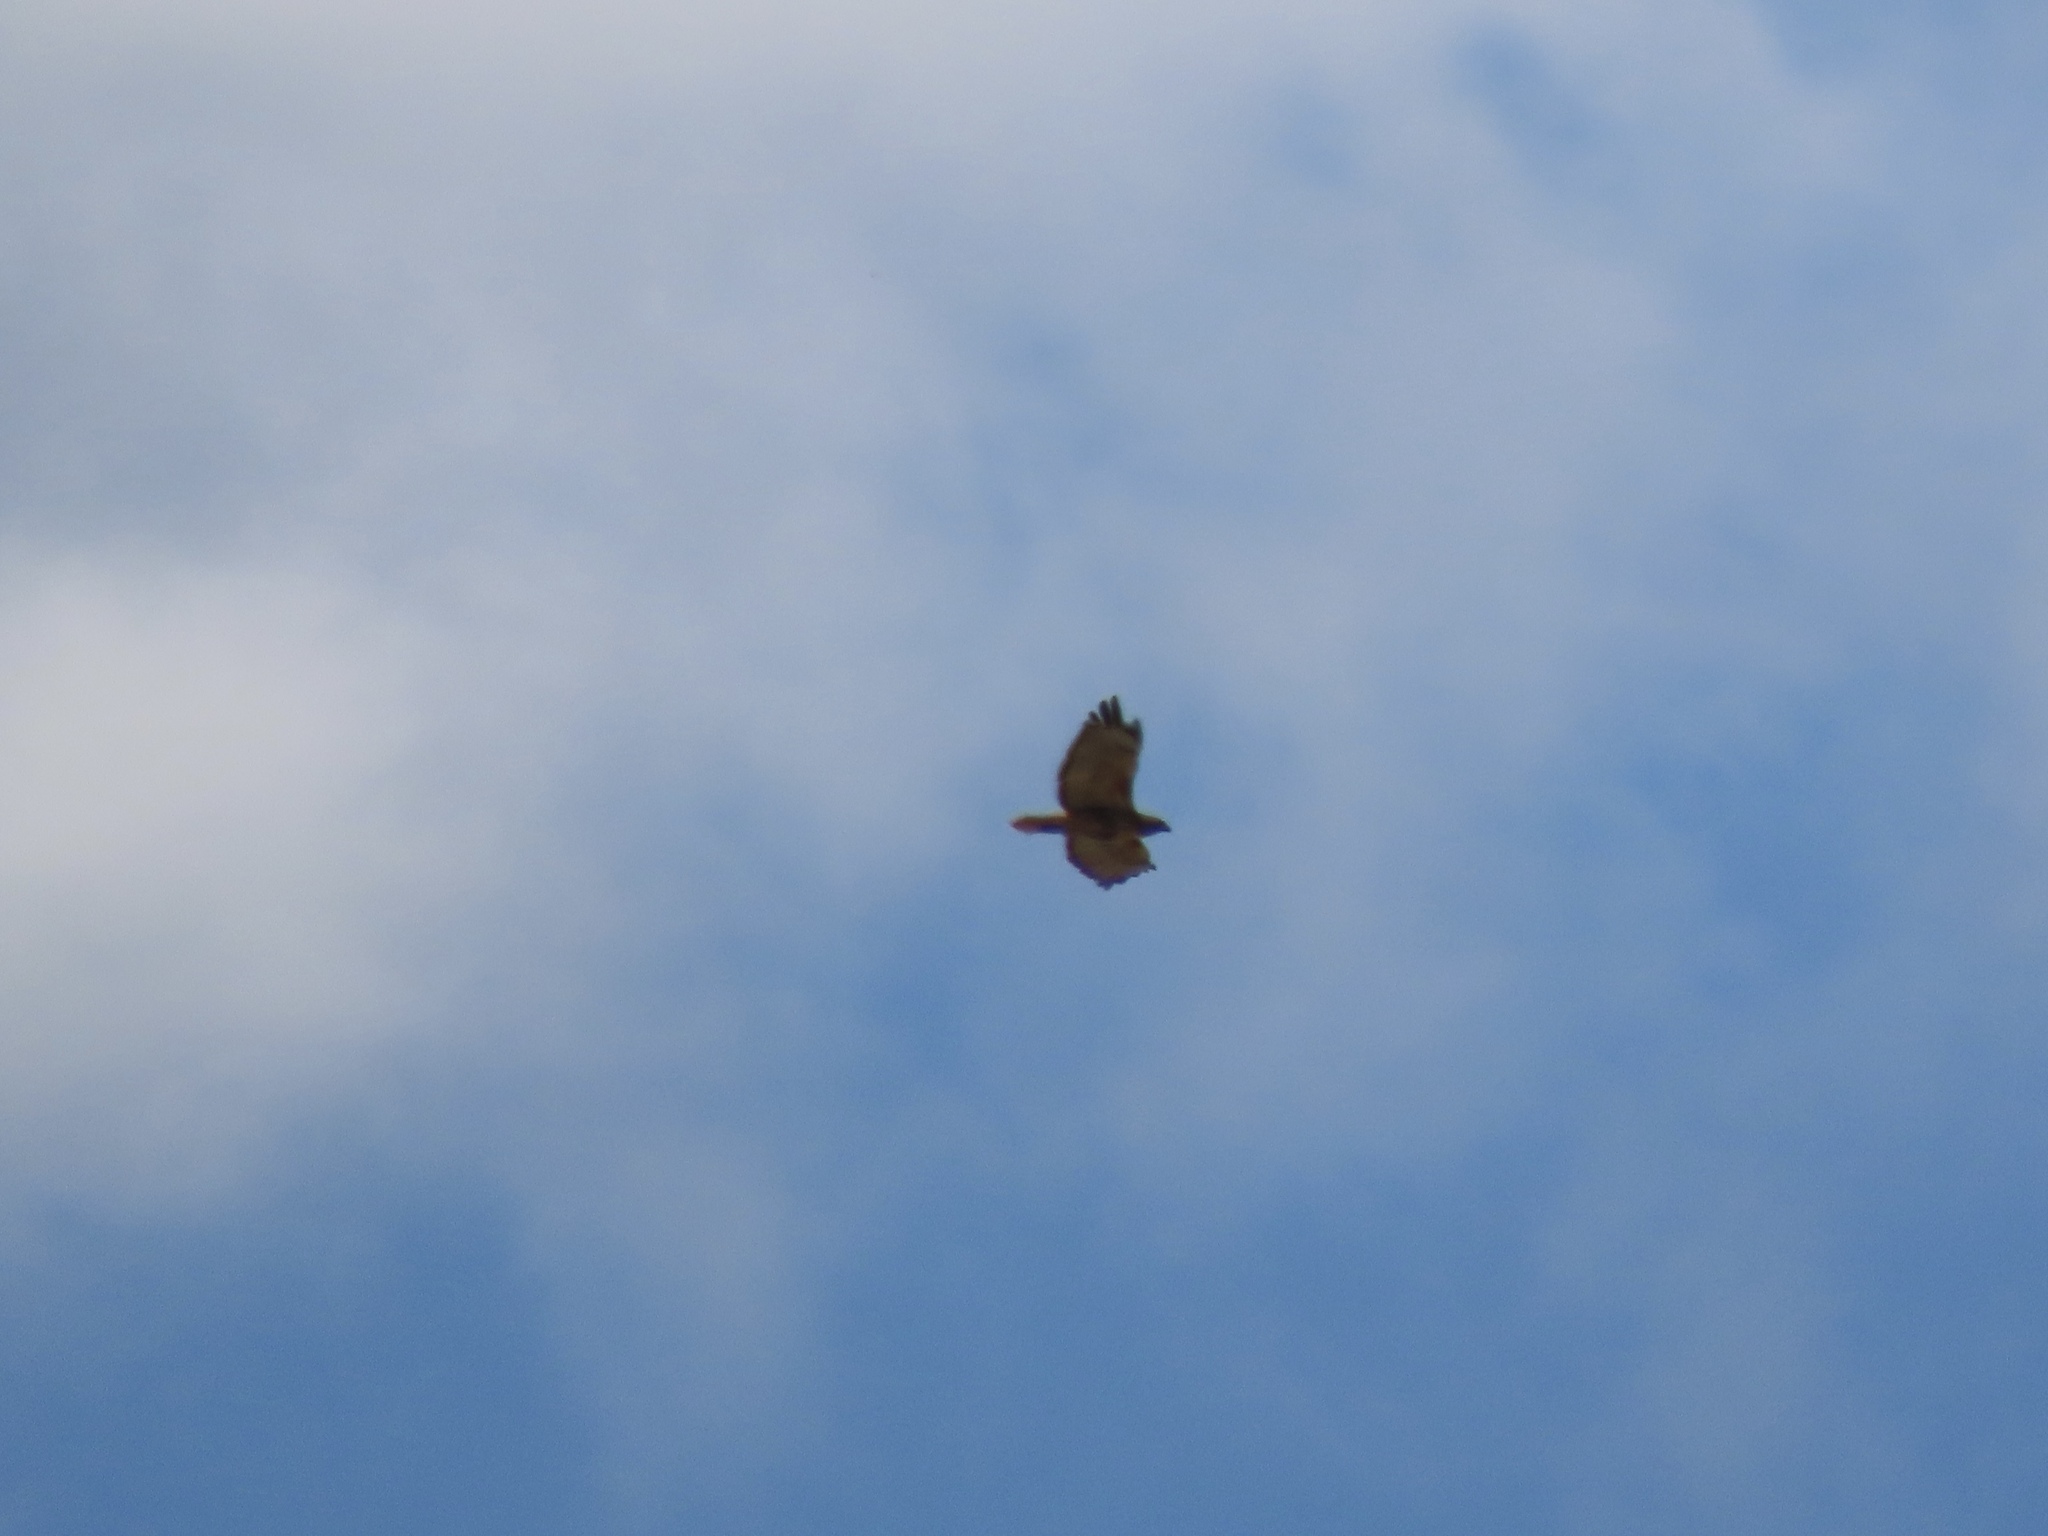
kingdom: Animalia
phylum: Chordata
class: Aves
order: Accipitriformes
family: Accipitridae
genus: Buteo
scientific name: Buteo jamaicensis
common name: Red-tailed hawk
